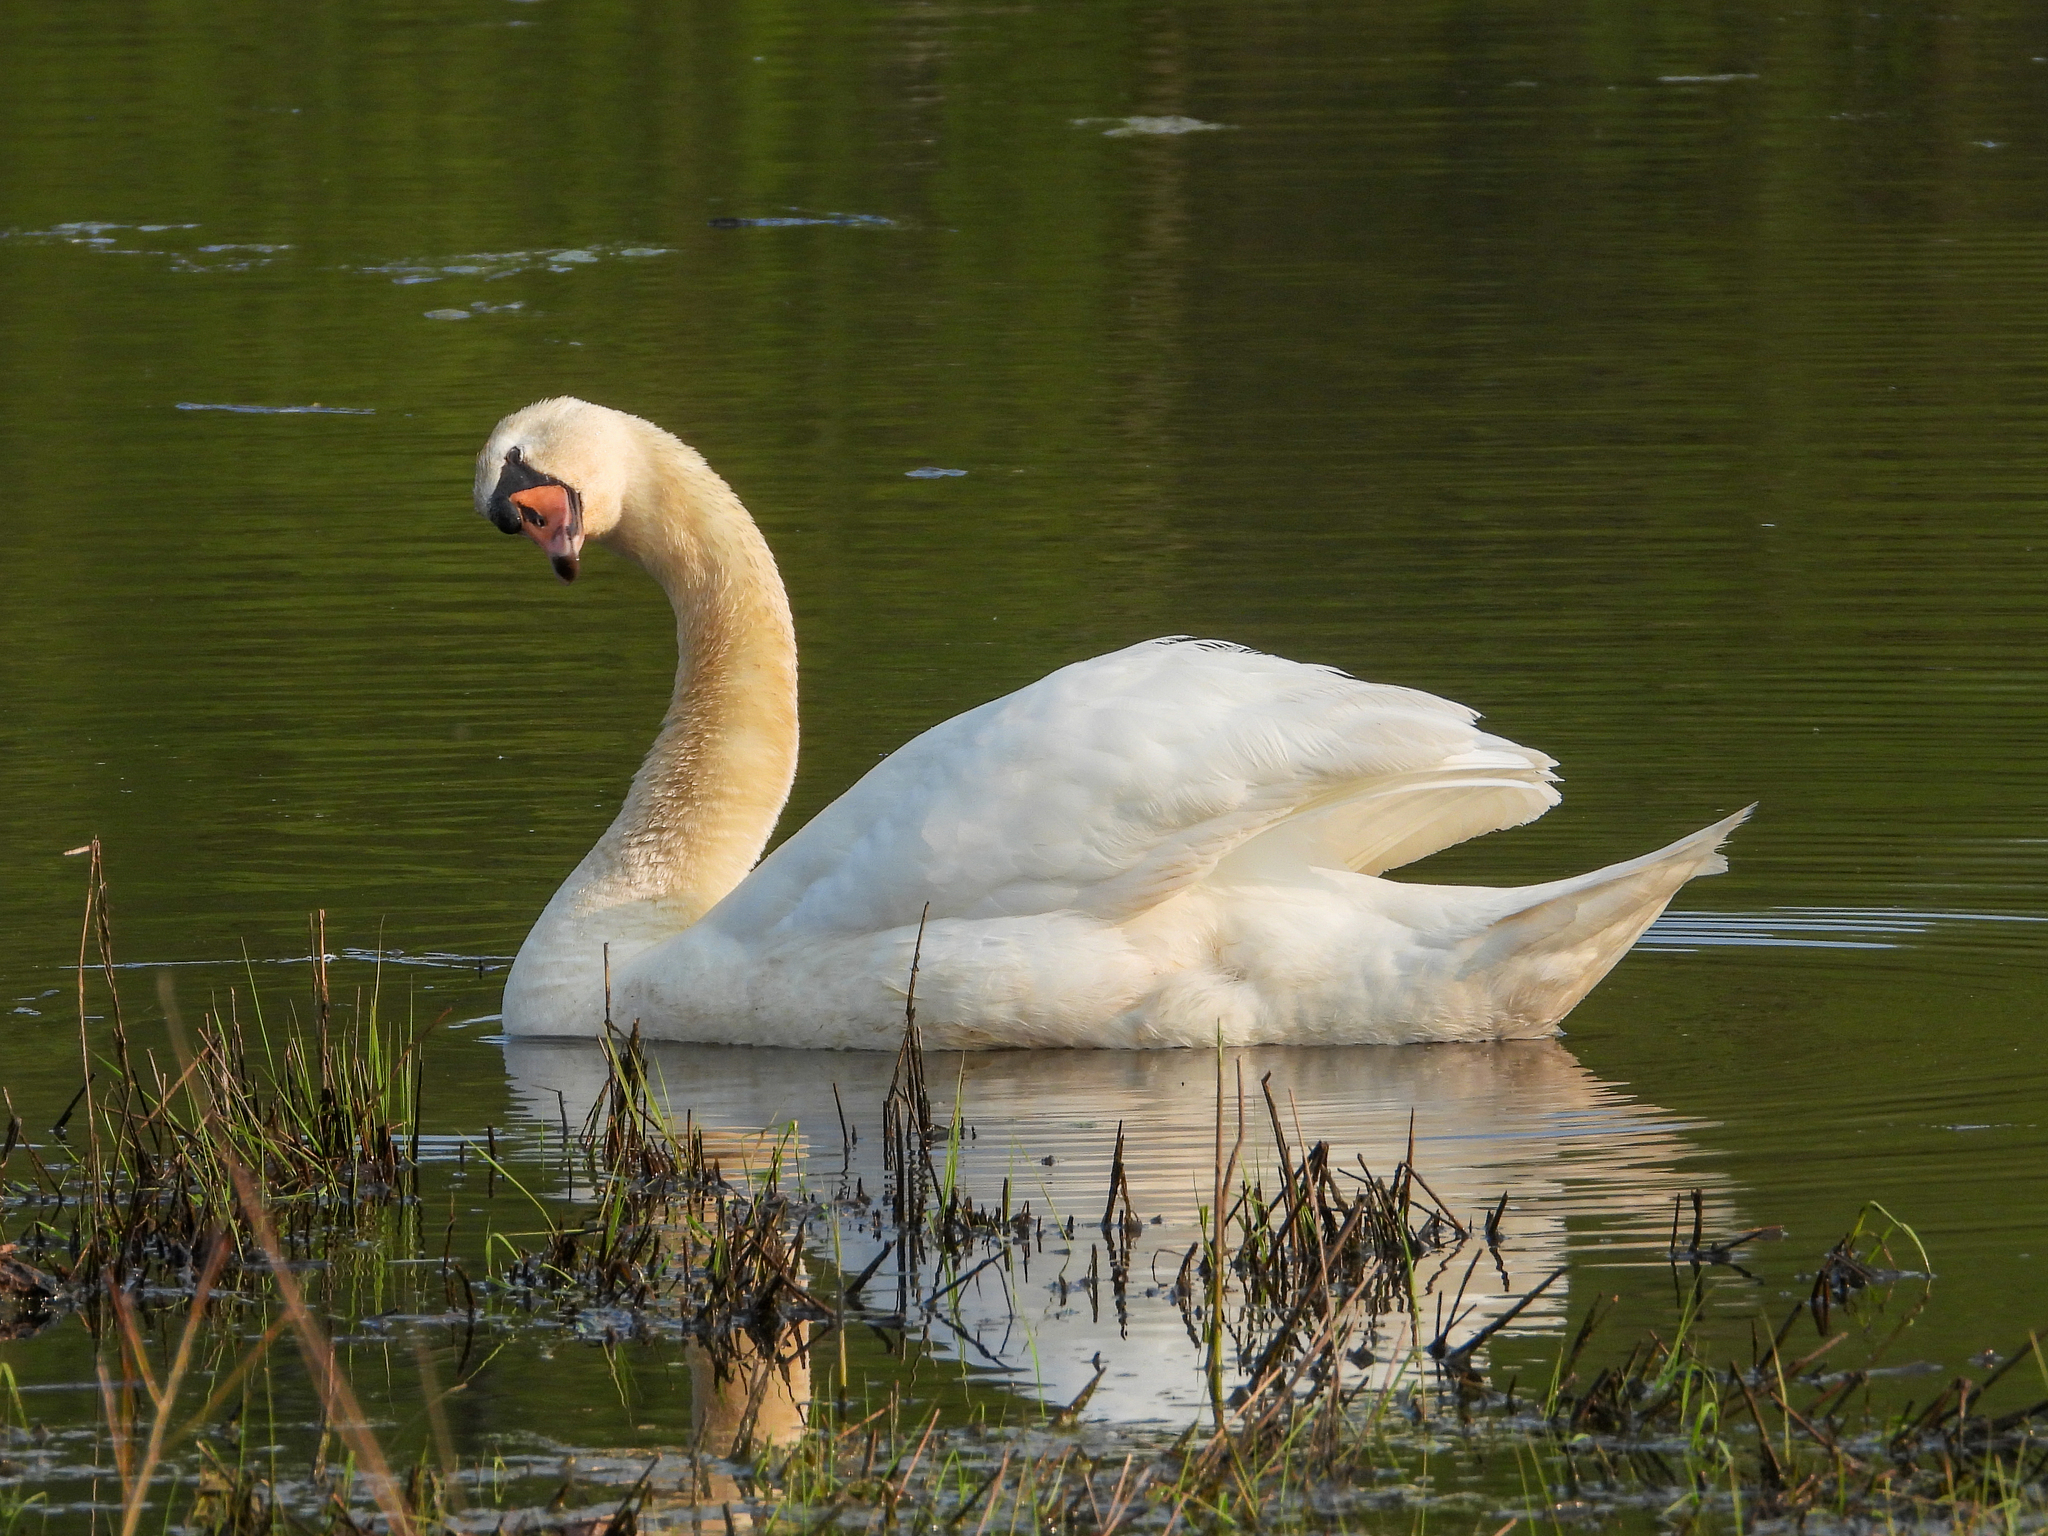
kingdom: Animalia
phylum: Chordata
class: Aves
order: Anseriformes
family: Anatidae
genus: Cygnus
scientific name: Cygnus olor
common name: Mute swan
